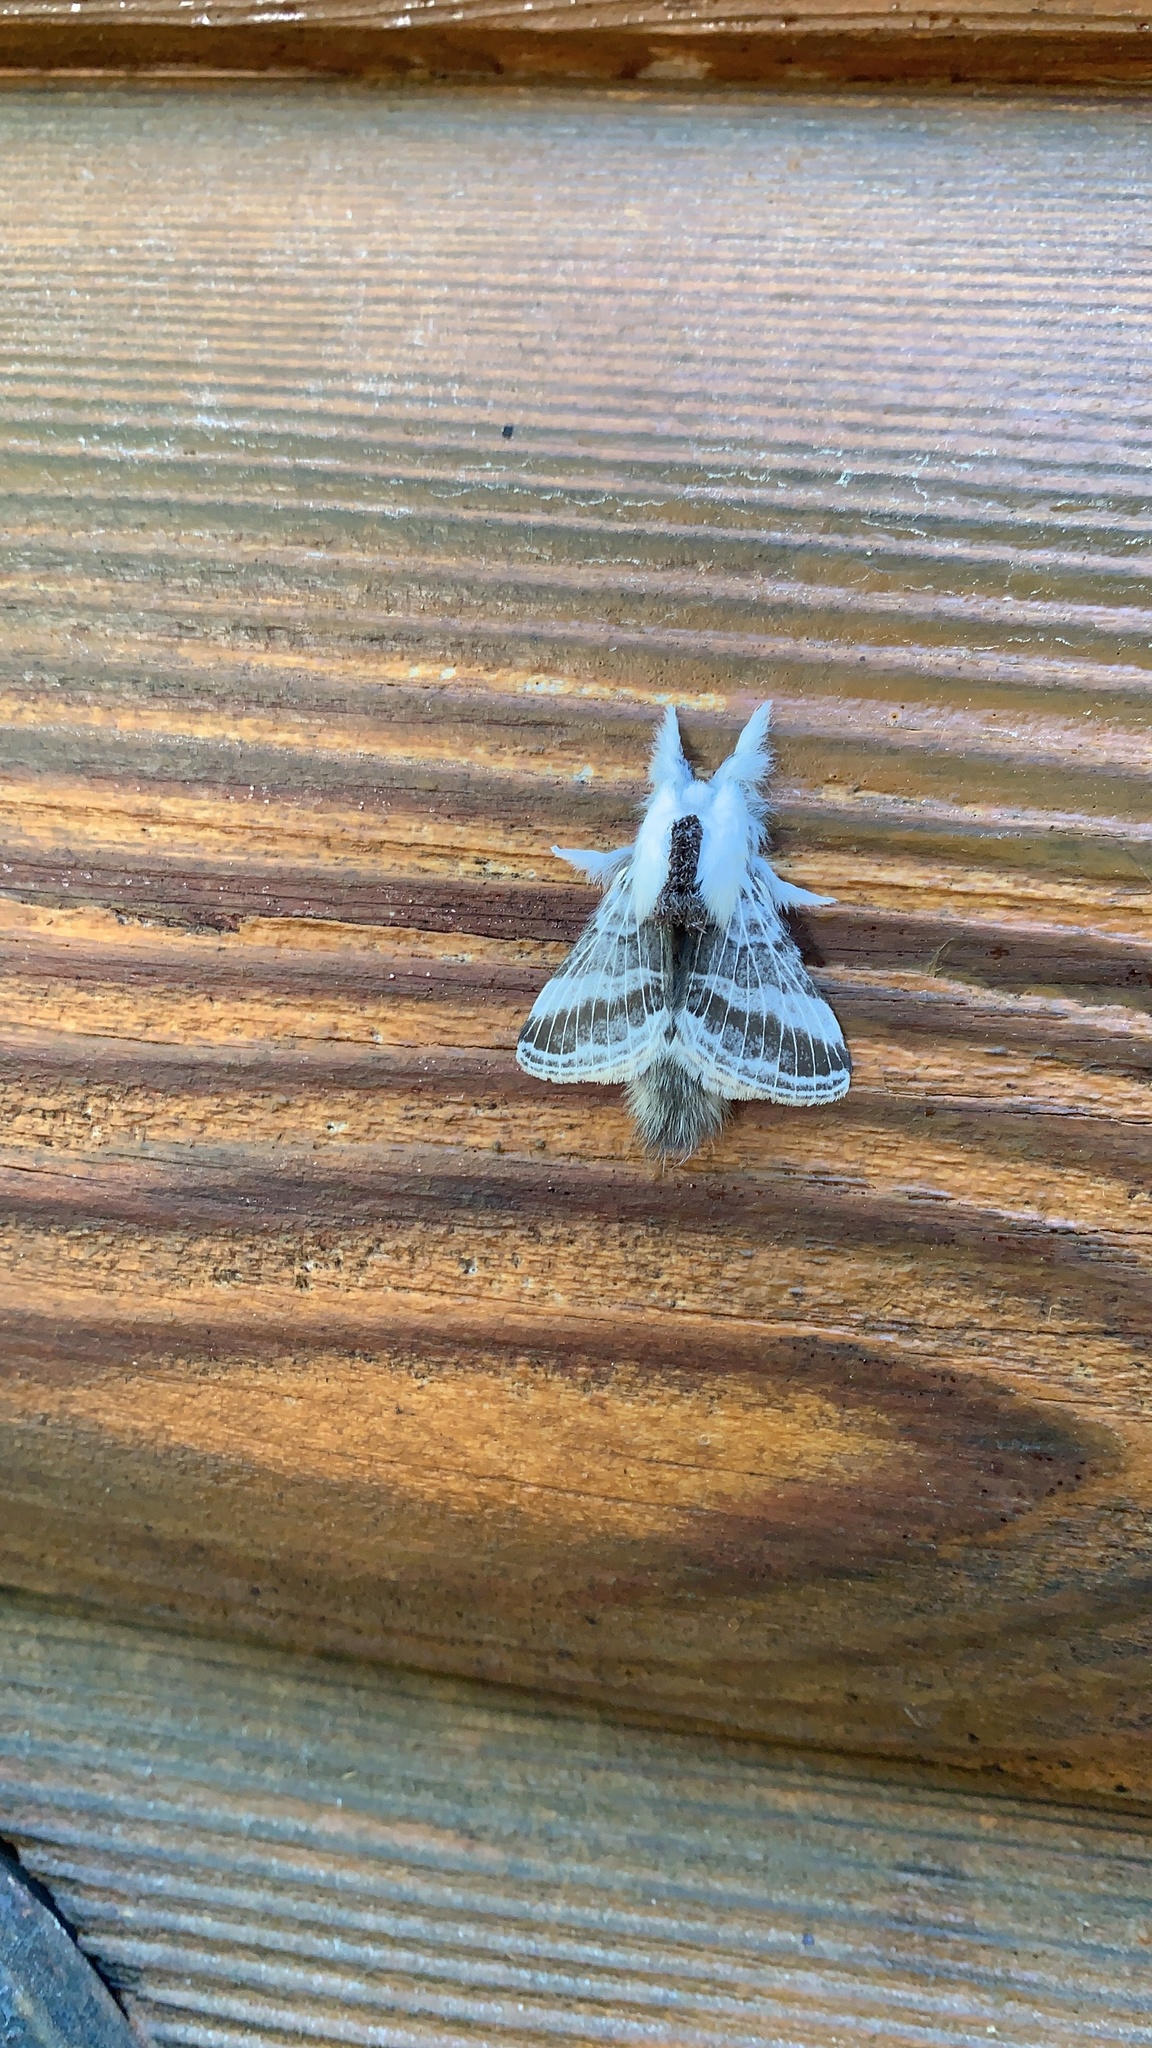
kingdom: Animalia
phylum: Arthropoda
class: Insecta
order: Lepidoptera
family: Lasiocampidae
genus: Tolype
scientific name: Tolype velleda
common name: Large tolype moth
